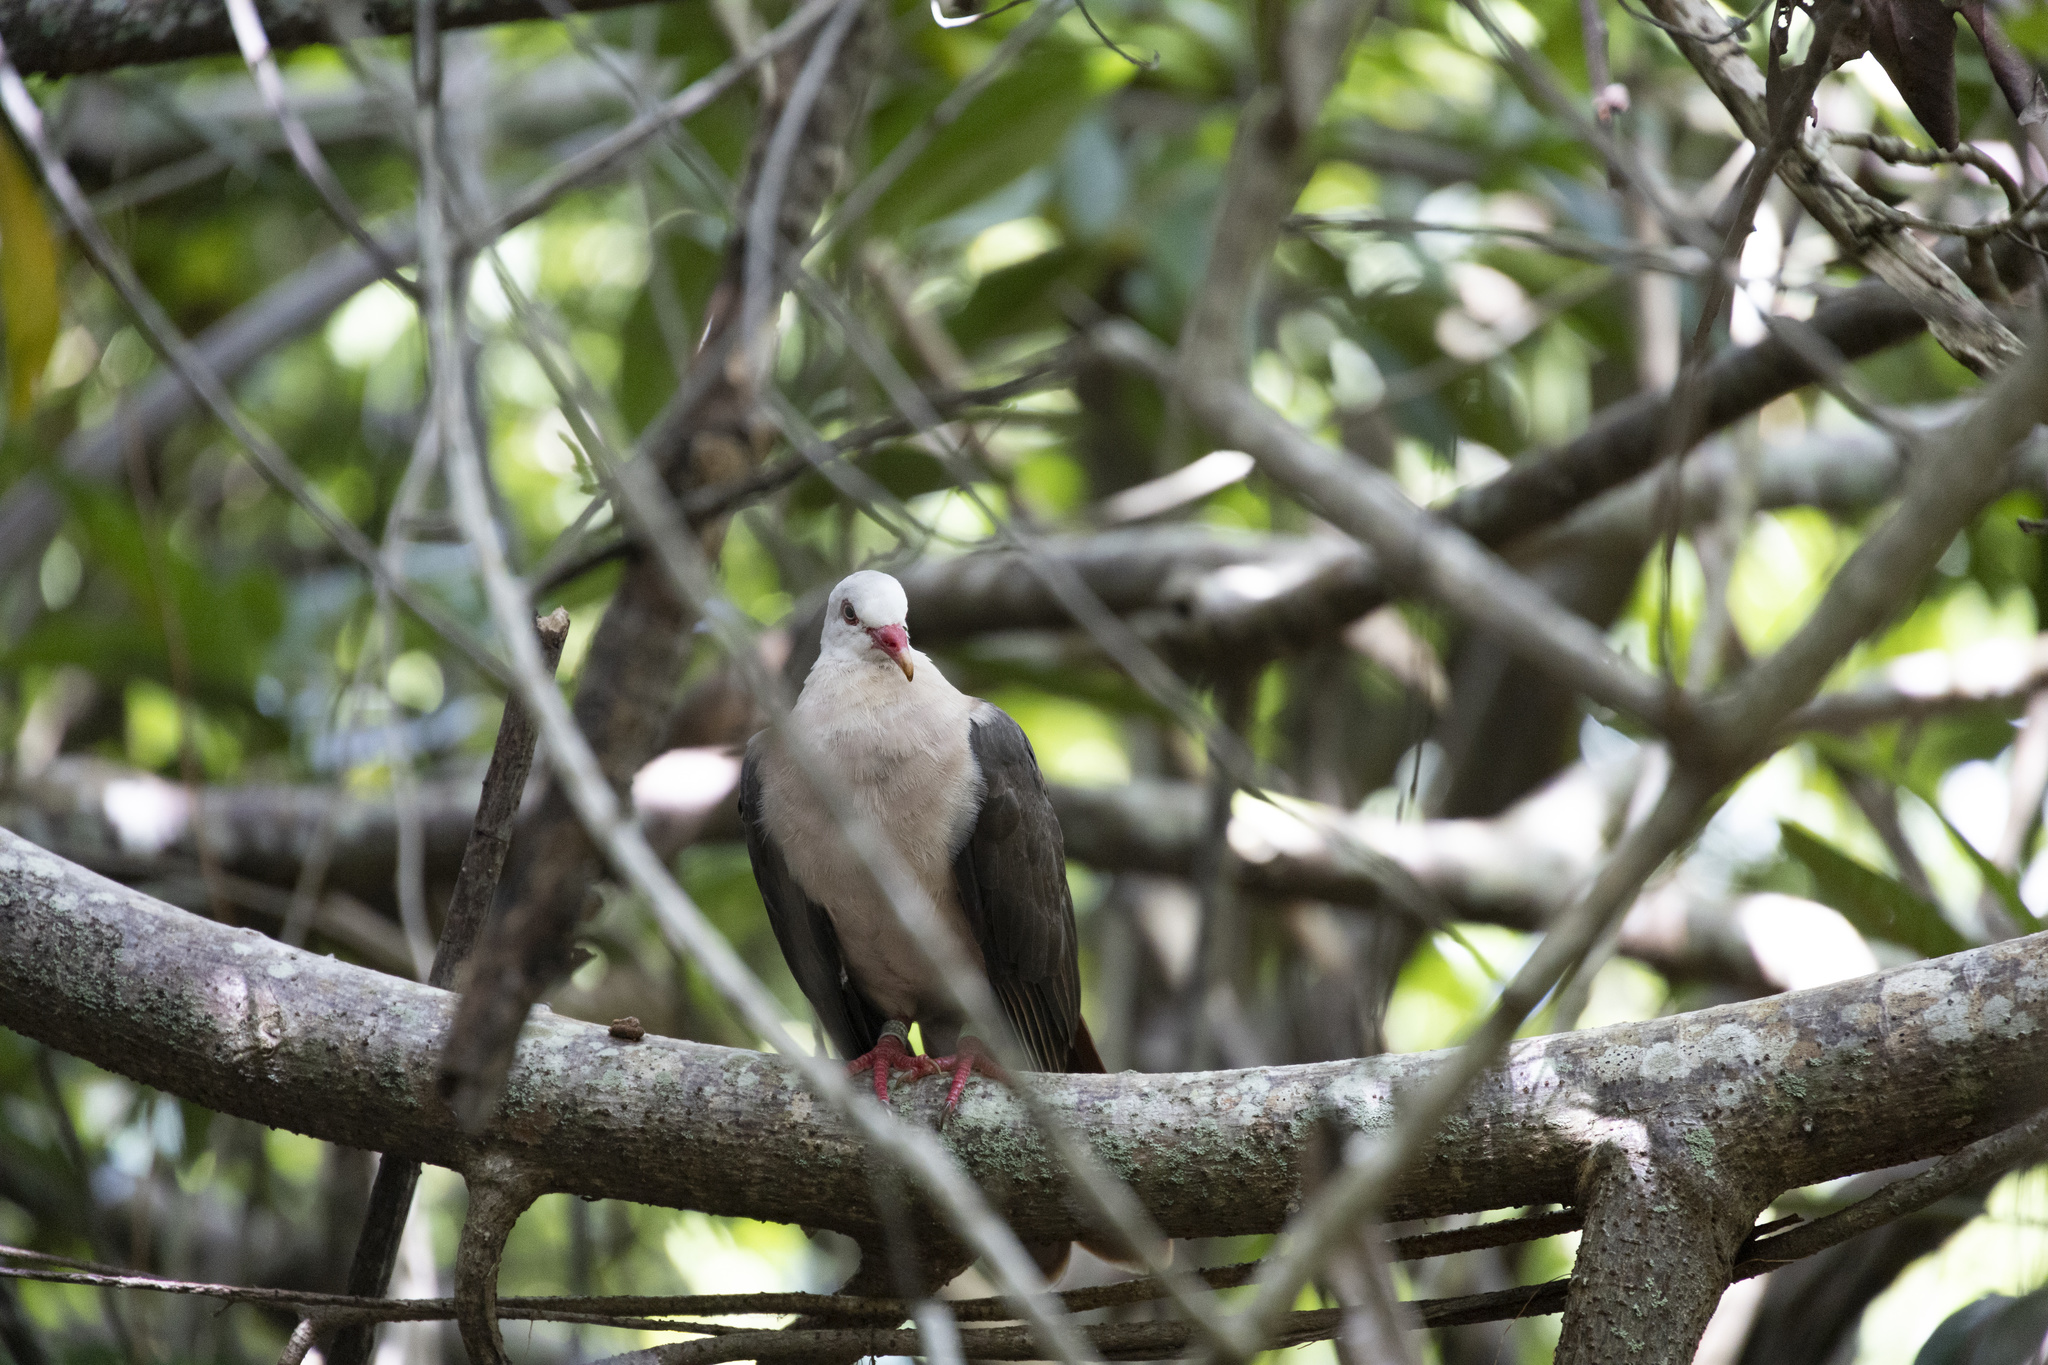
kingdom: Animalia
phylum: Chordata
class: Aves
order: Columbiformes
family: Columbidae
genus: Nesoenas
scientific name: Nesoenas mayeri
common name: Pink pigeon
